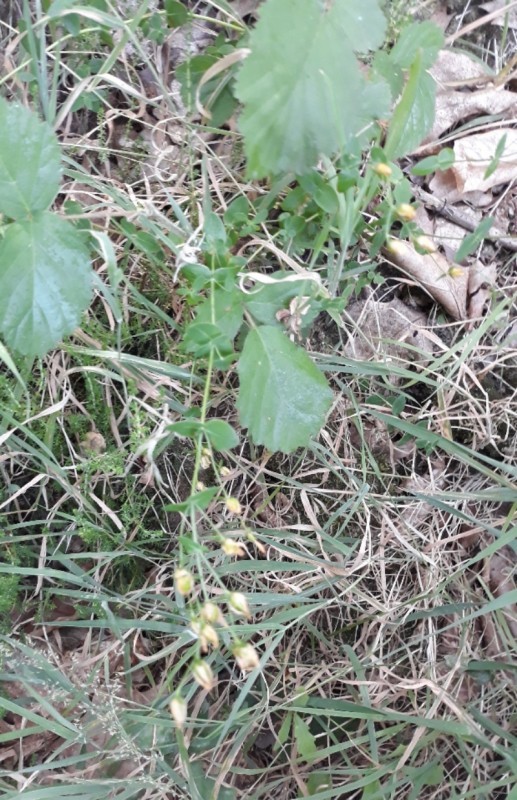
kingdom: Plantae
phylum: Tracheophyta
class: Magnoliopsida
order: Malpighiales
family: Hypericaceae
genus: Hypericum
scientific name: Hypericum pulchrum
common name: Slender st. john's-wort
